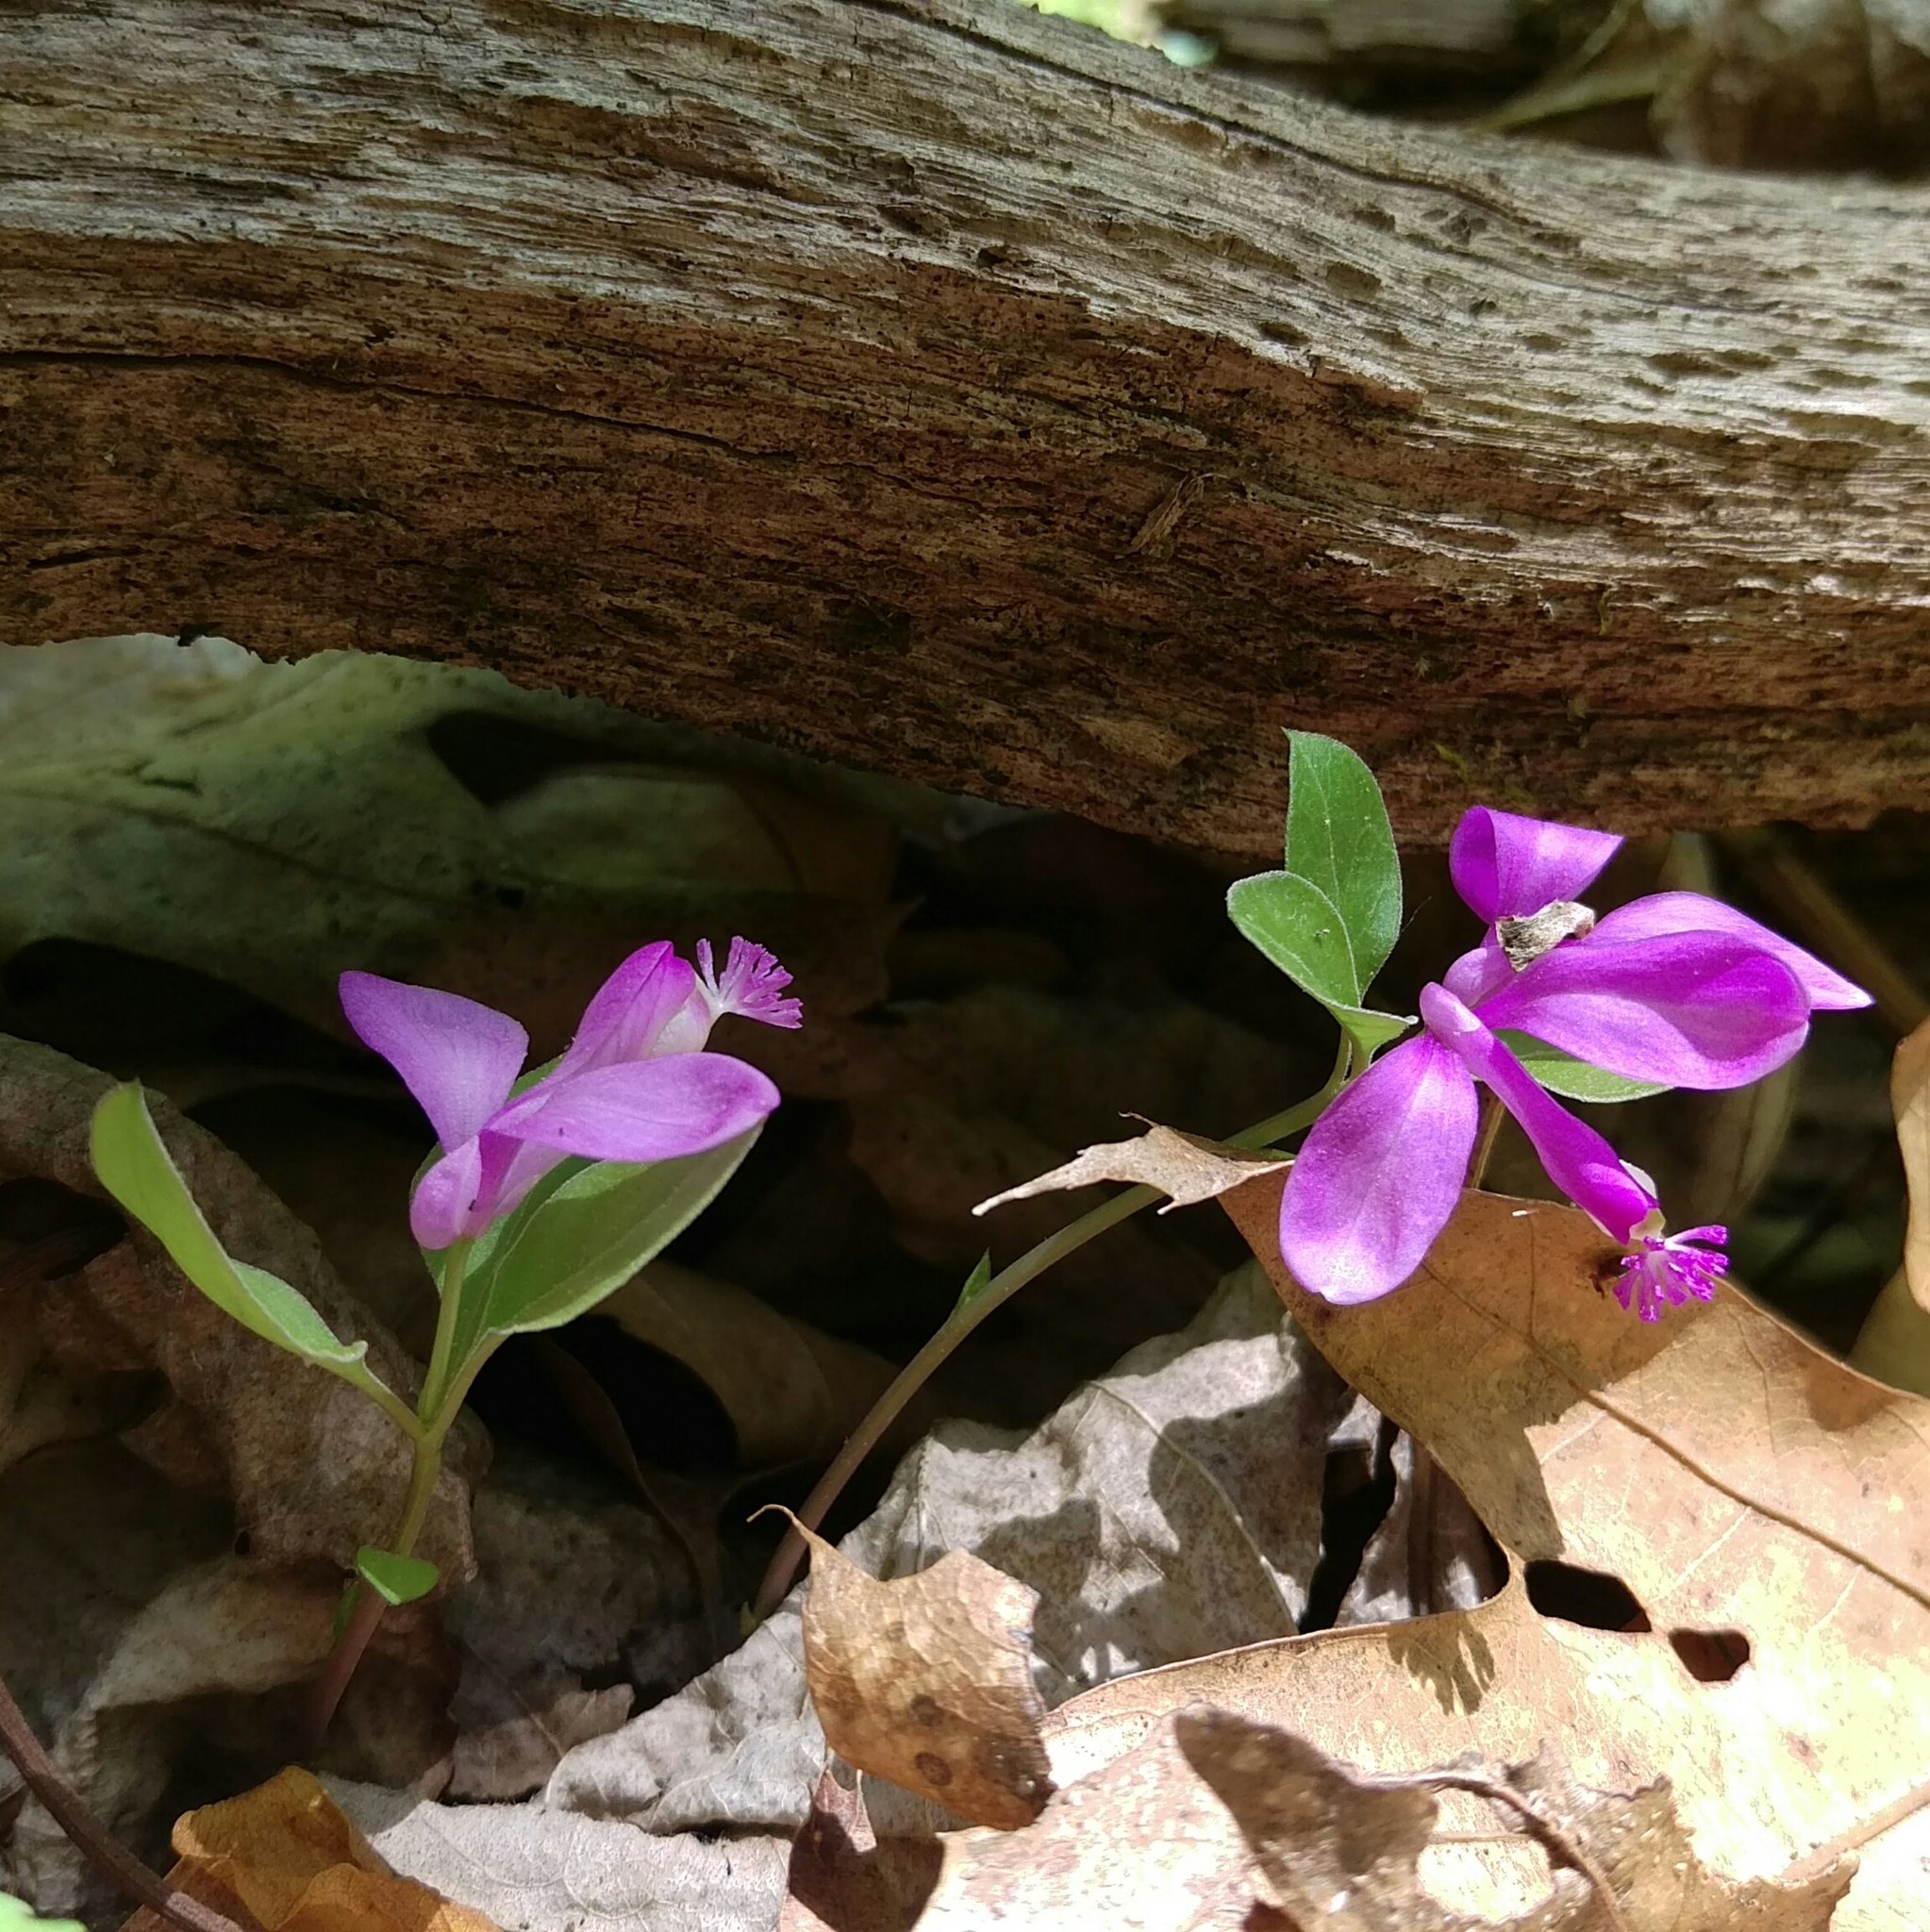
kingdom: Plantae
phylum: Tracheophyta
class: Magnoliopsida
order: Fabales
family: Polygalaceae
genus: Polygaloides
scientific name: Polygaloides paucifolia
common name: Bird-on-the-wing
